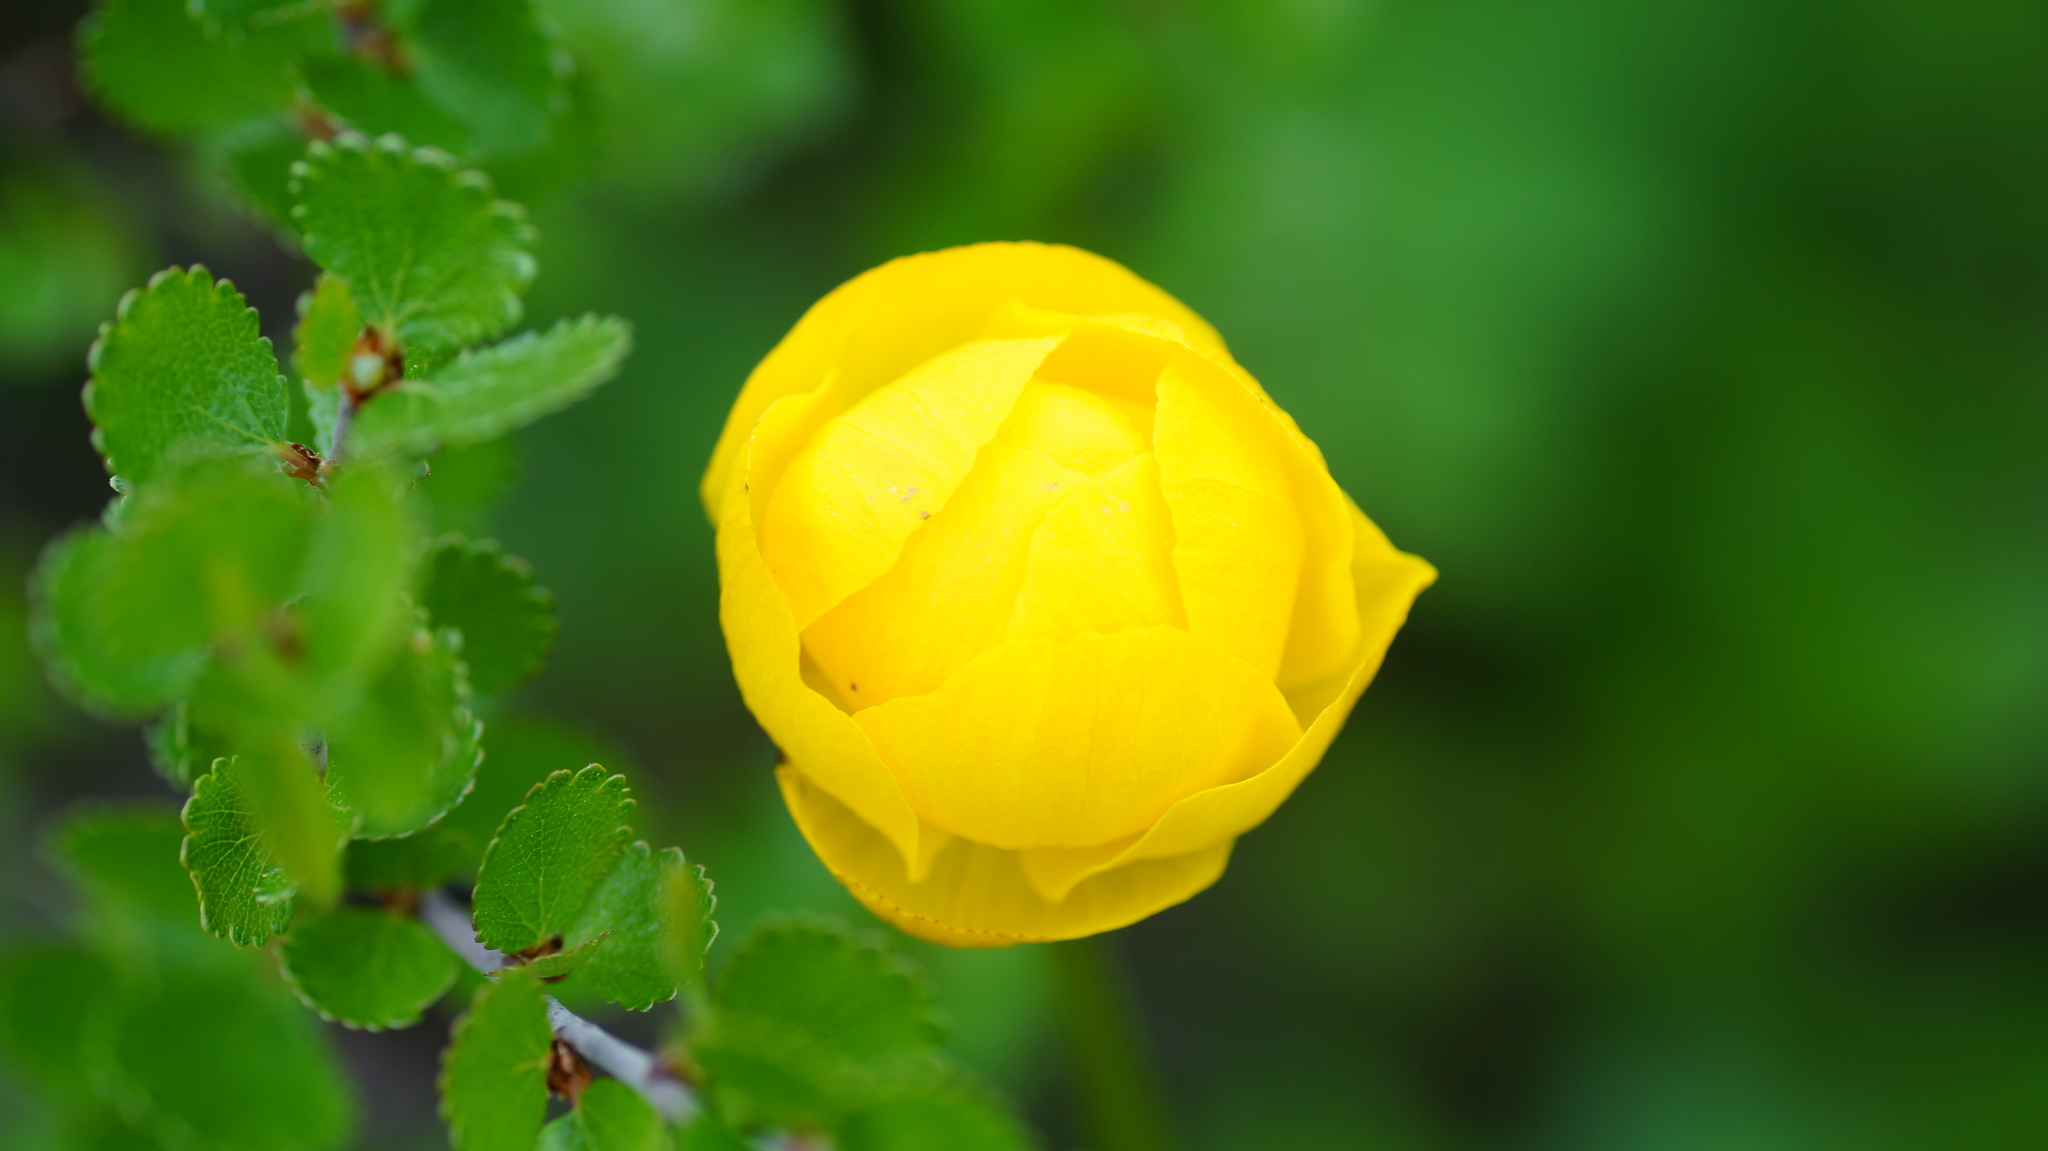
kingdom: Plantae
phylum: Tracheophyta
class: Magnoliopsida
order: Ranunculales
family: Ranunculaceae
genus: Trollius
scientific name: Trollius europaeus
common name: European globeflower
